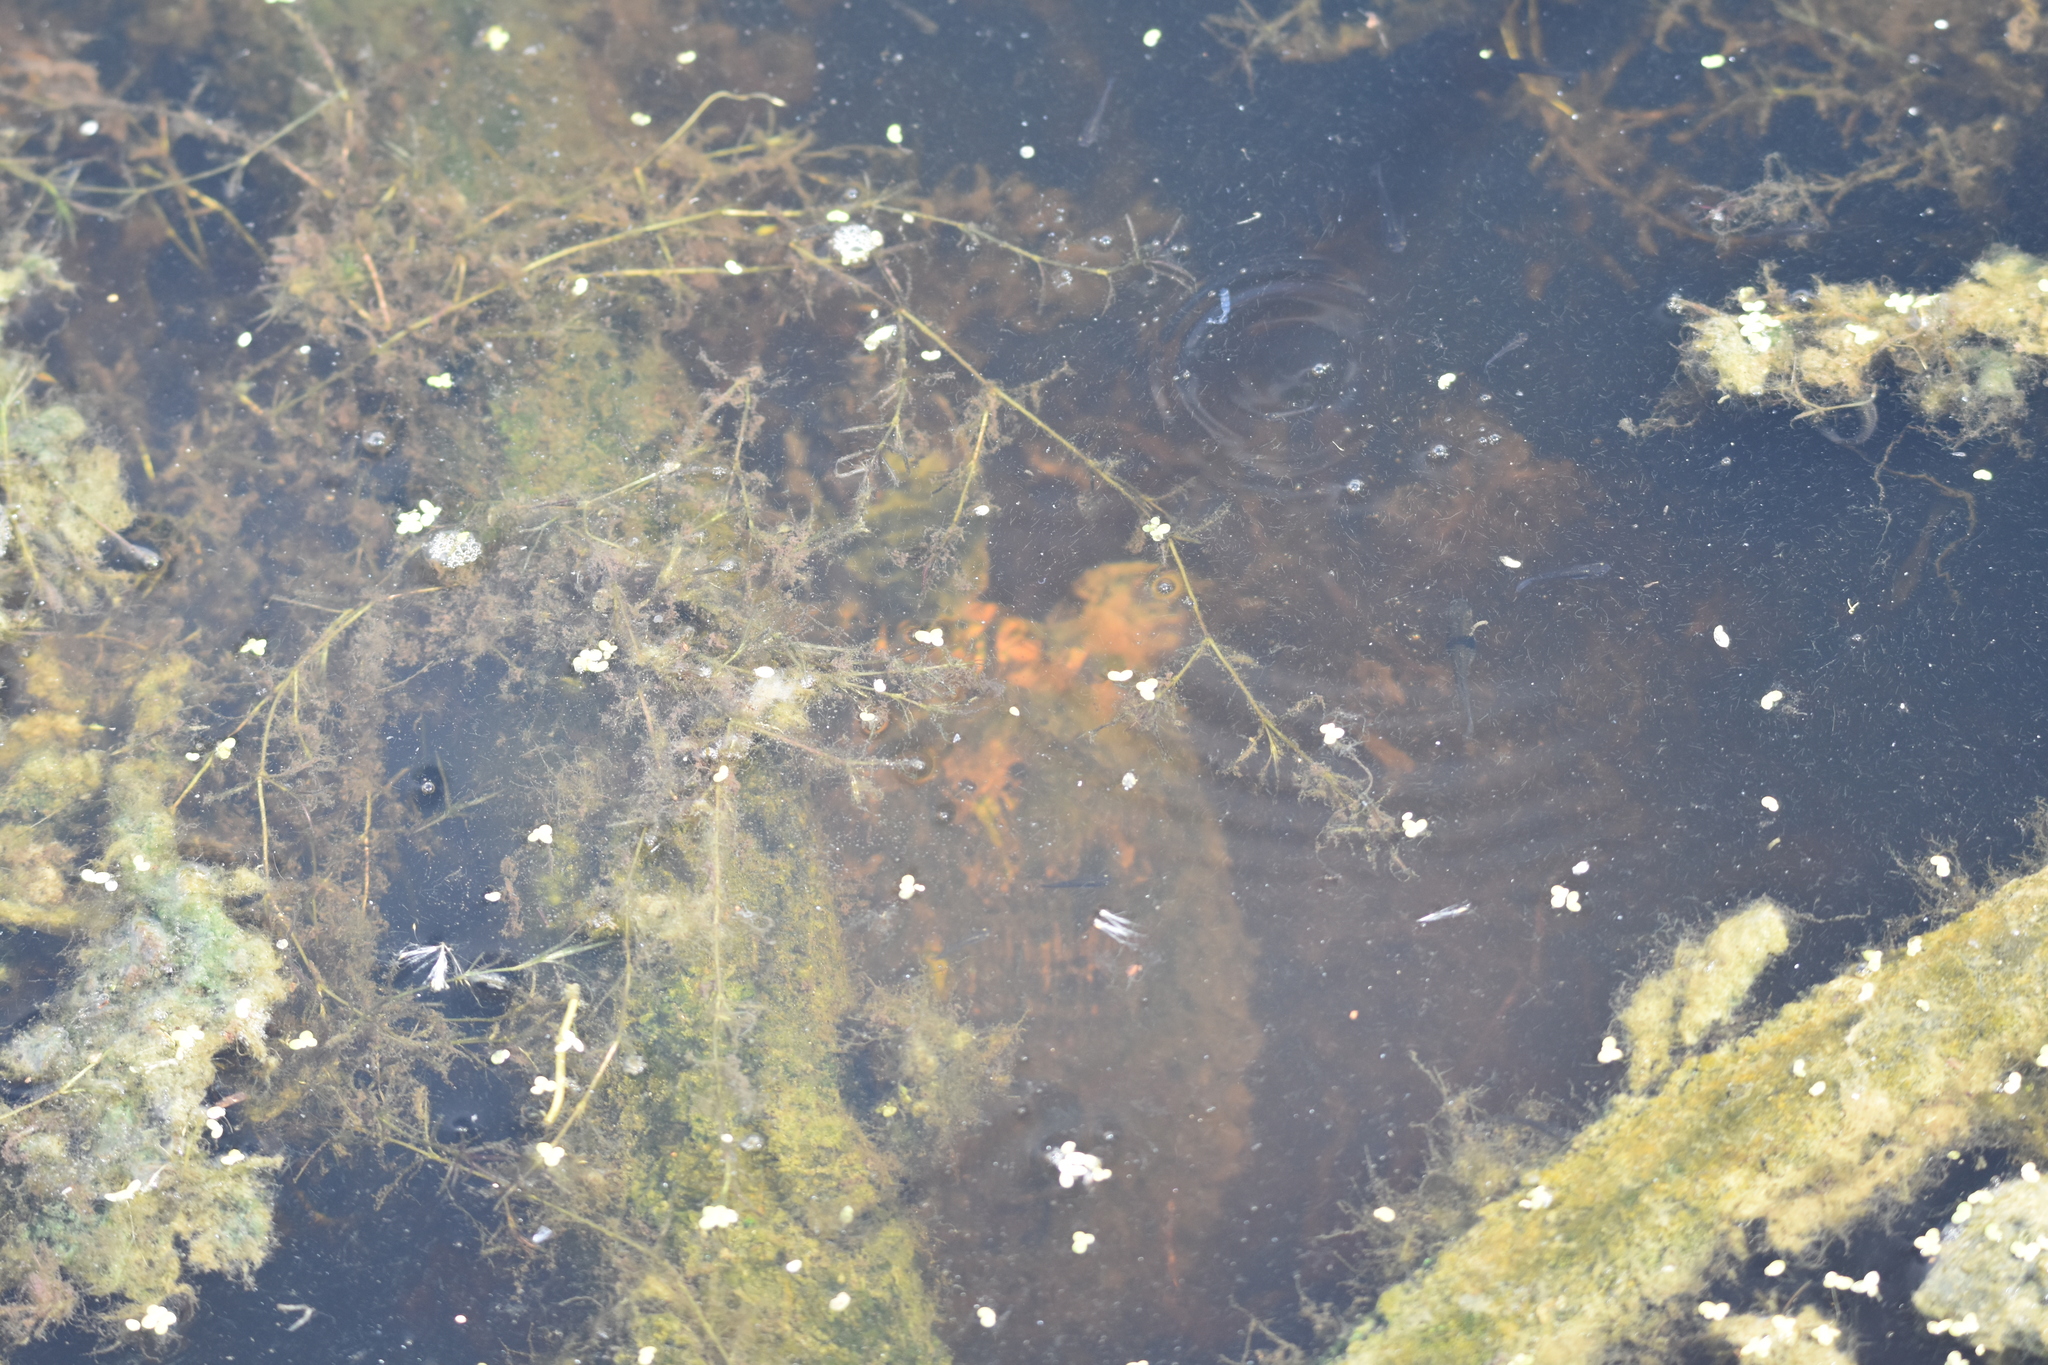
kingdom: Animalia
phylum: Chordata
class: Testudines
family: Emydidae
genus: Trachemys
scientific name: Trachemys scripta
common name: Slider
